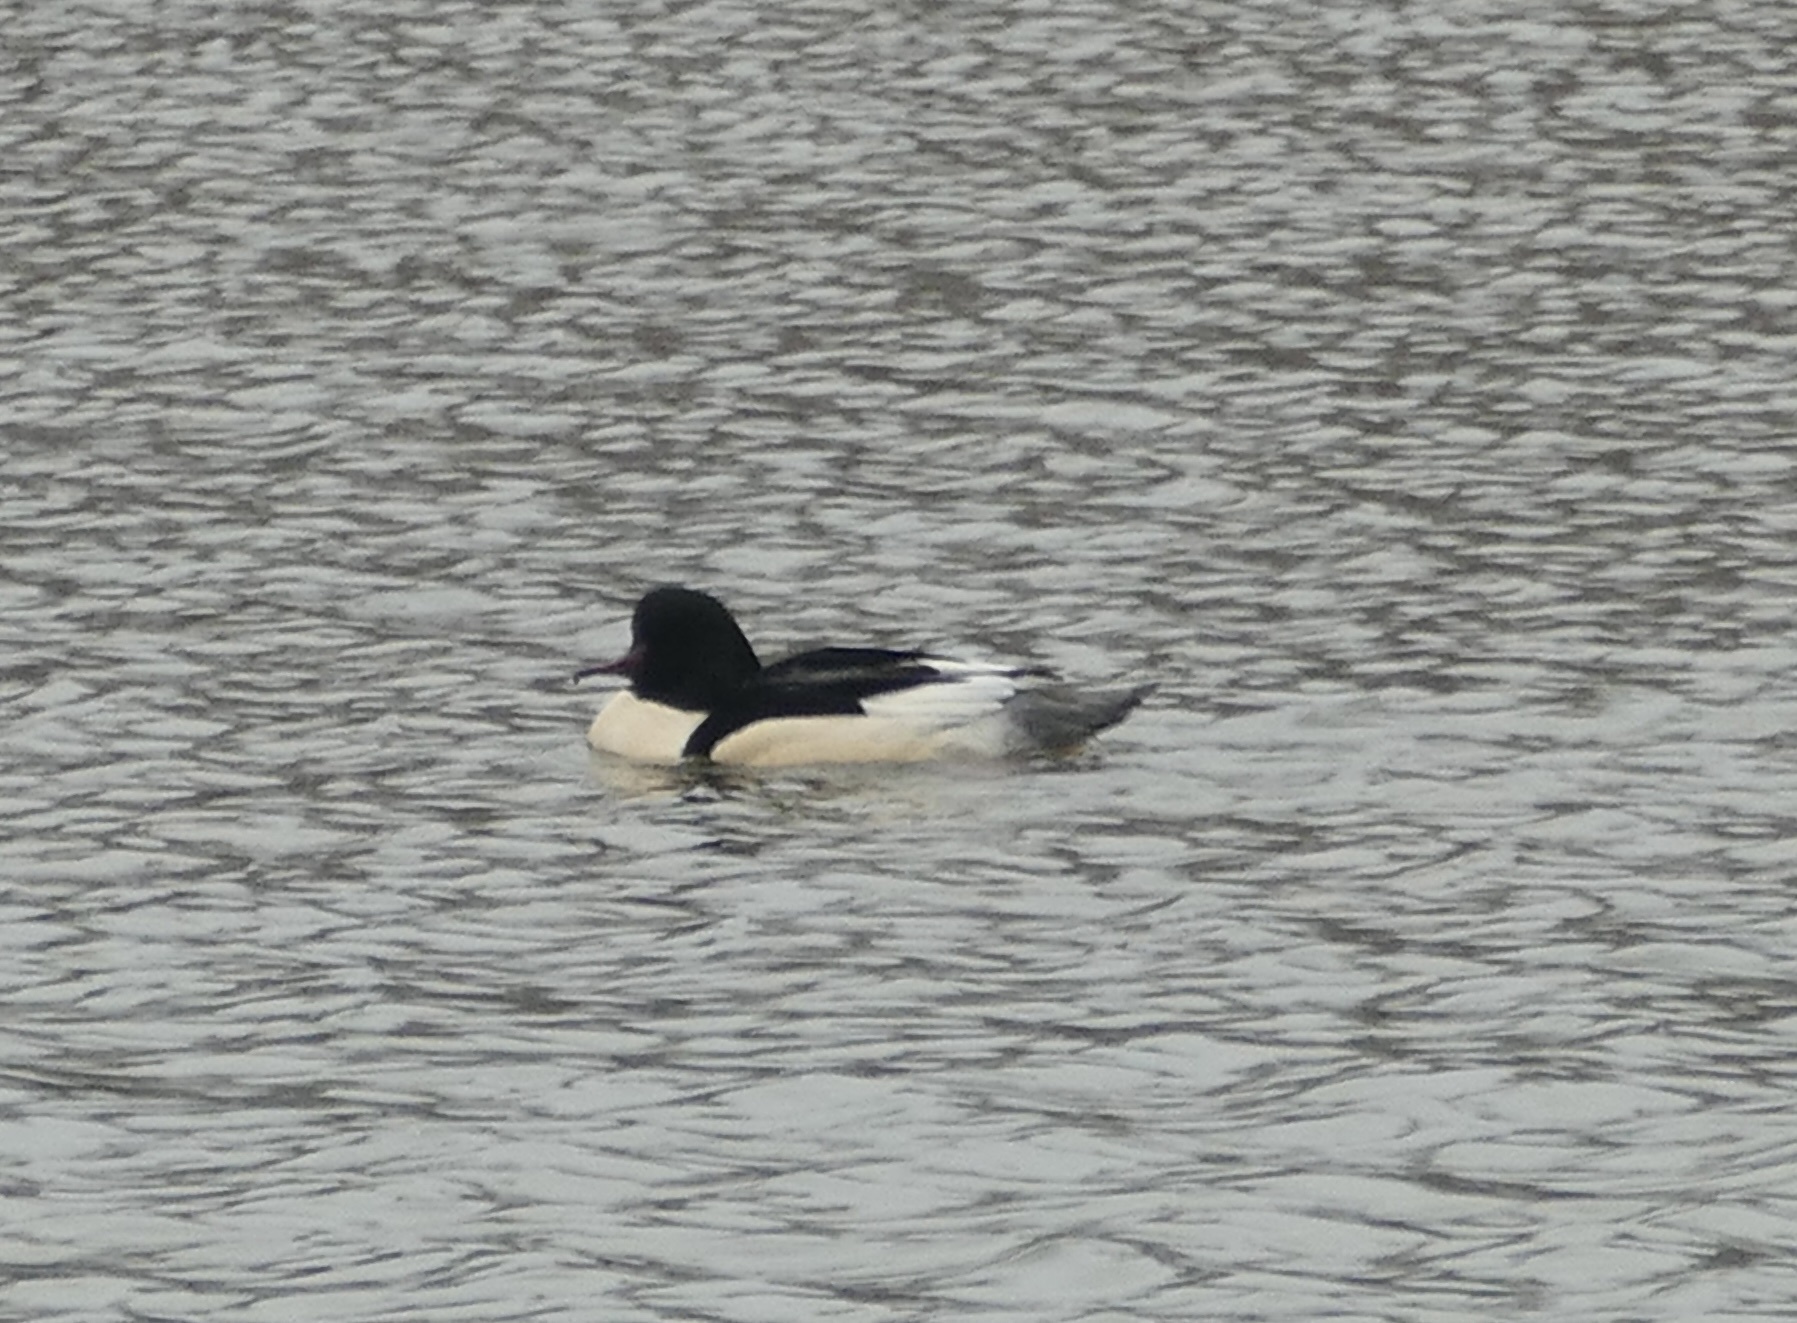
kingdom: Animalia
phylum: Chordata
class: Aves
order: Anseriformes
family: Anatidae
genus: Mergus
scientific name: Mergus merganser
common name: Common merganser
